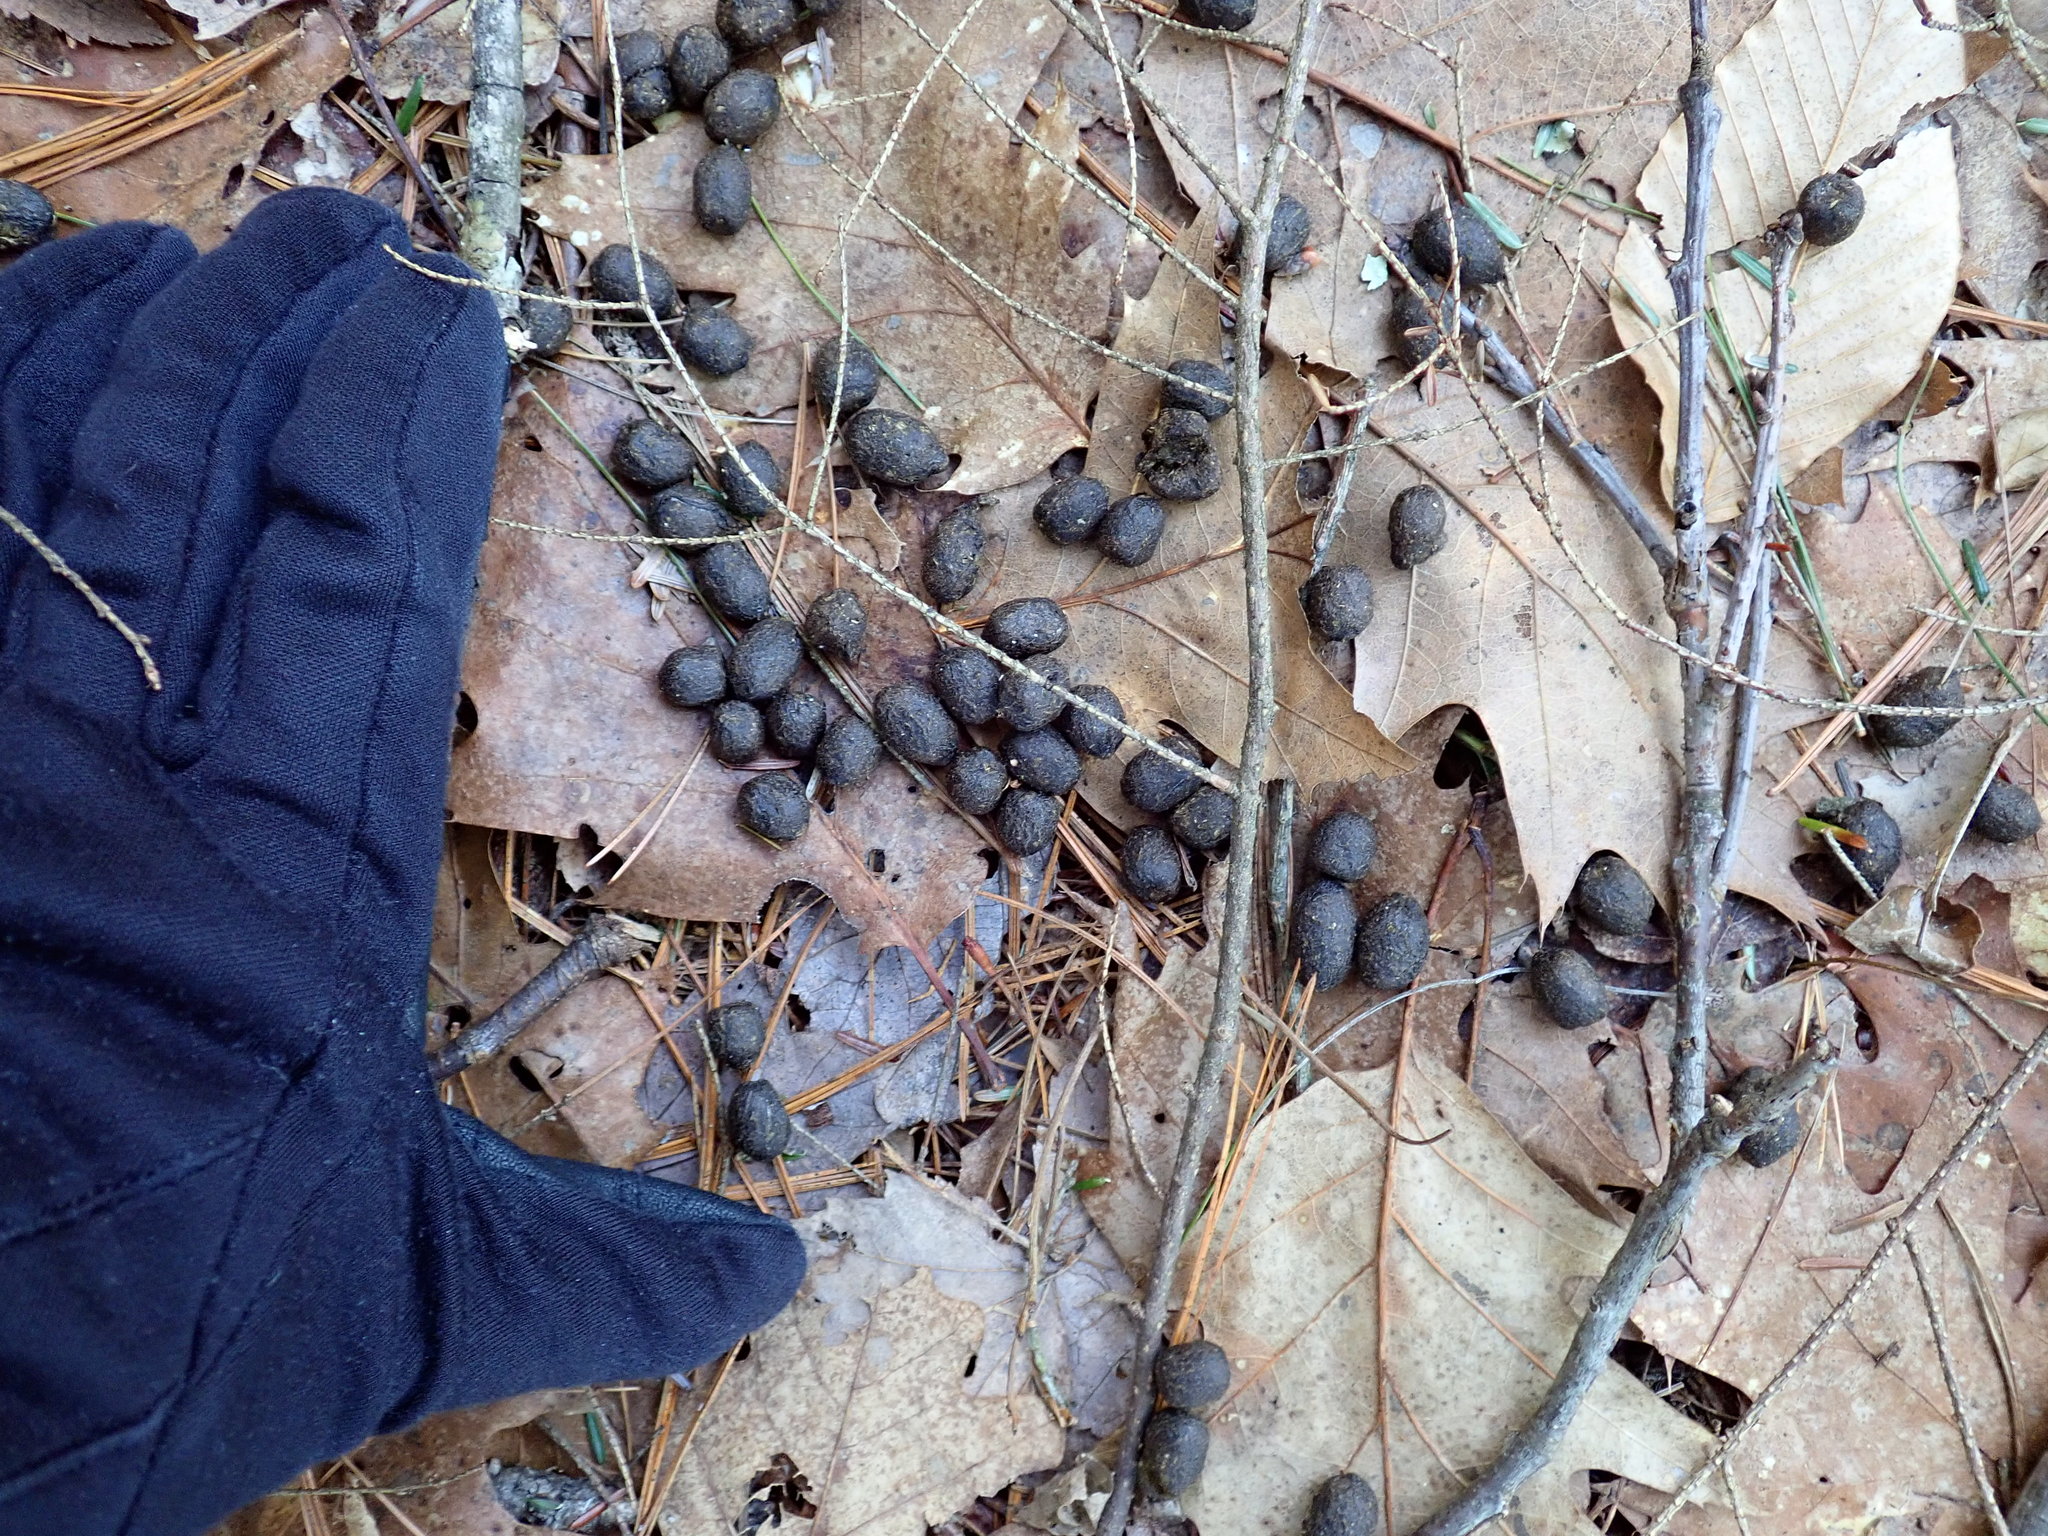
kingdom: Animalia
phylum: Chordata
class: Mammalia
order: Artiodactyla
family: Cervidae
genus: Odocoileus
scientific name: Odocoileus virginianus
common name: White-tailed deer
